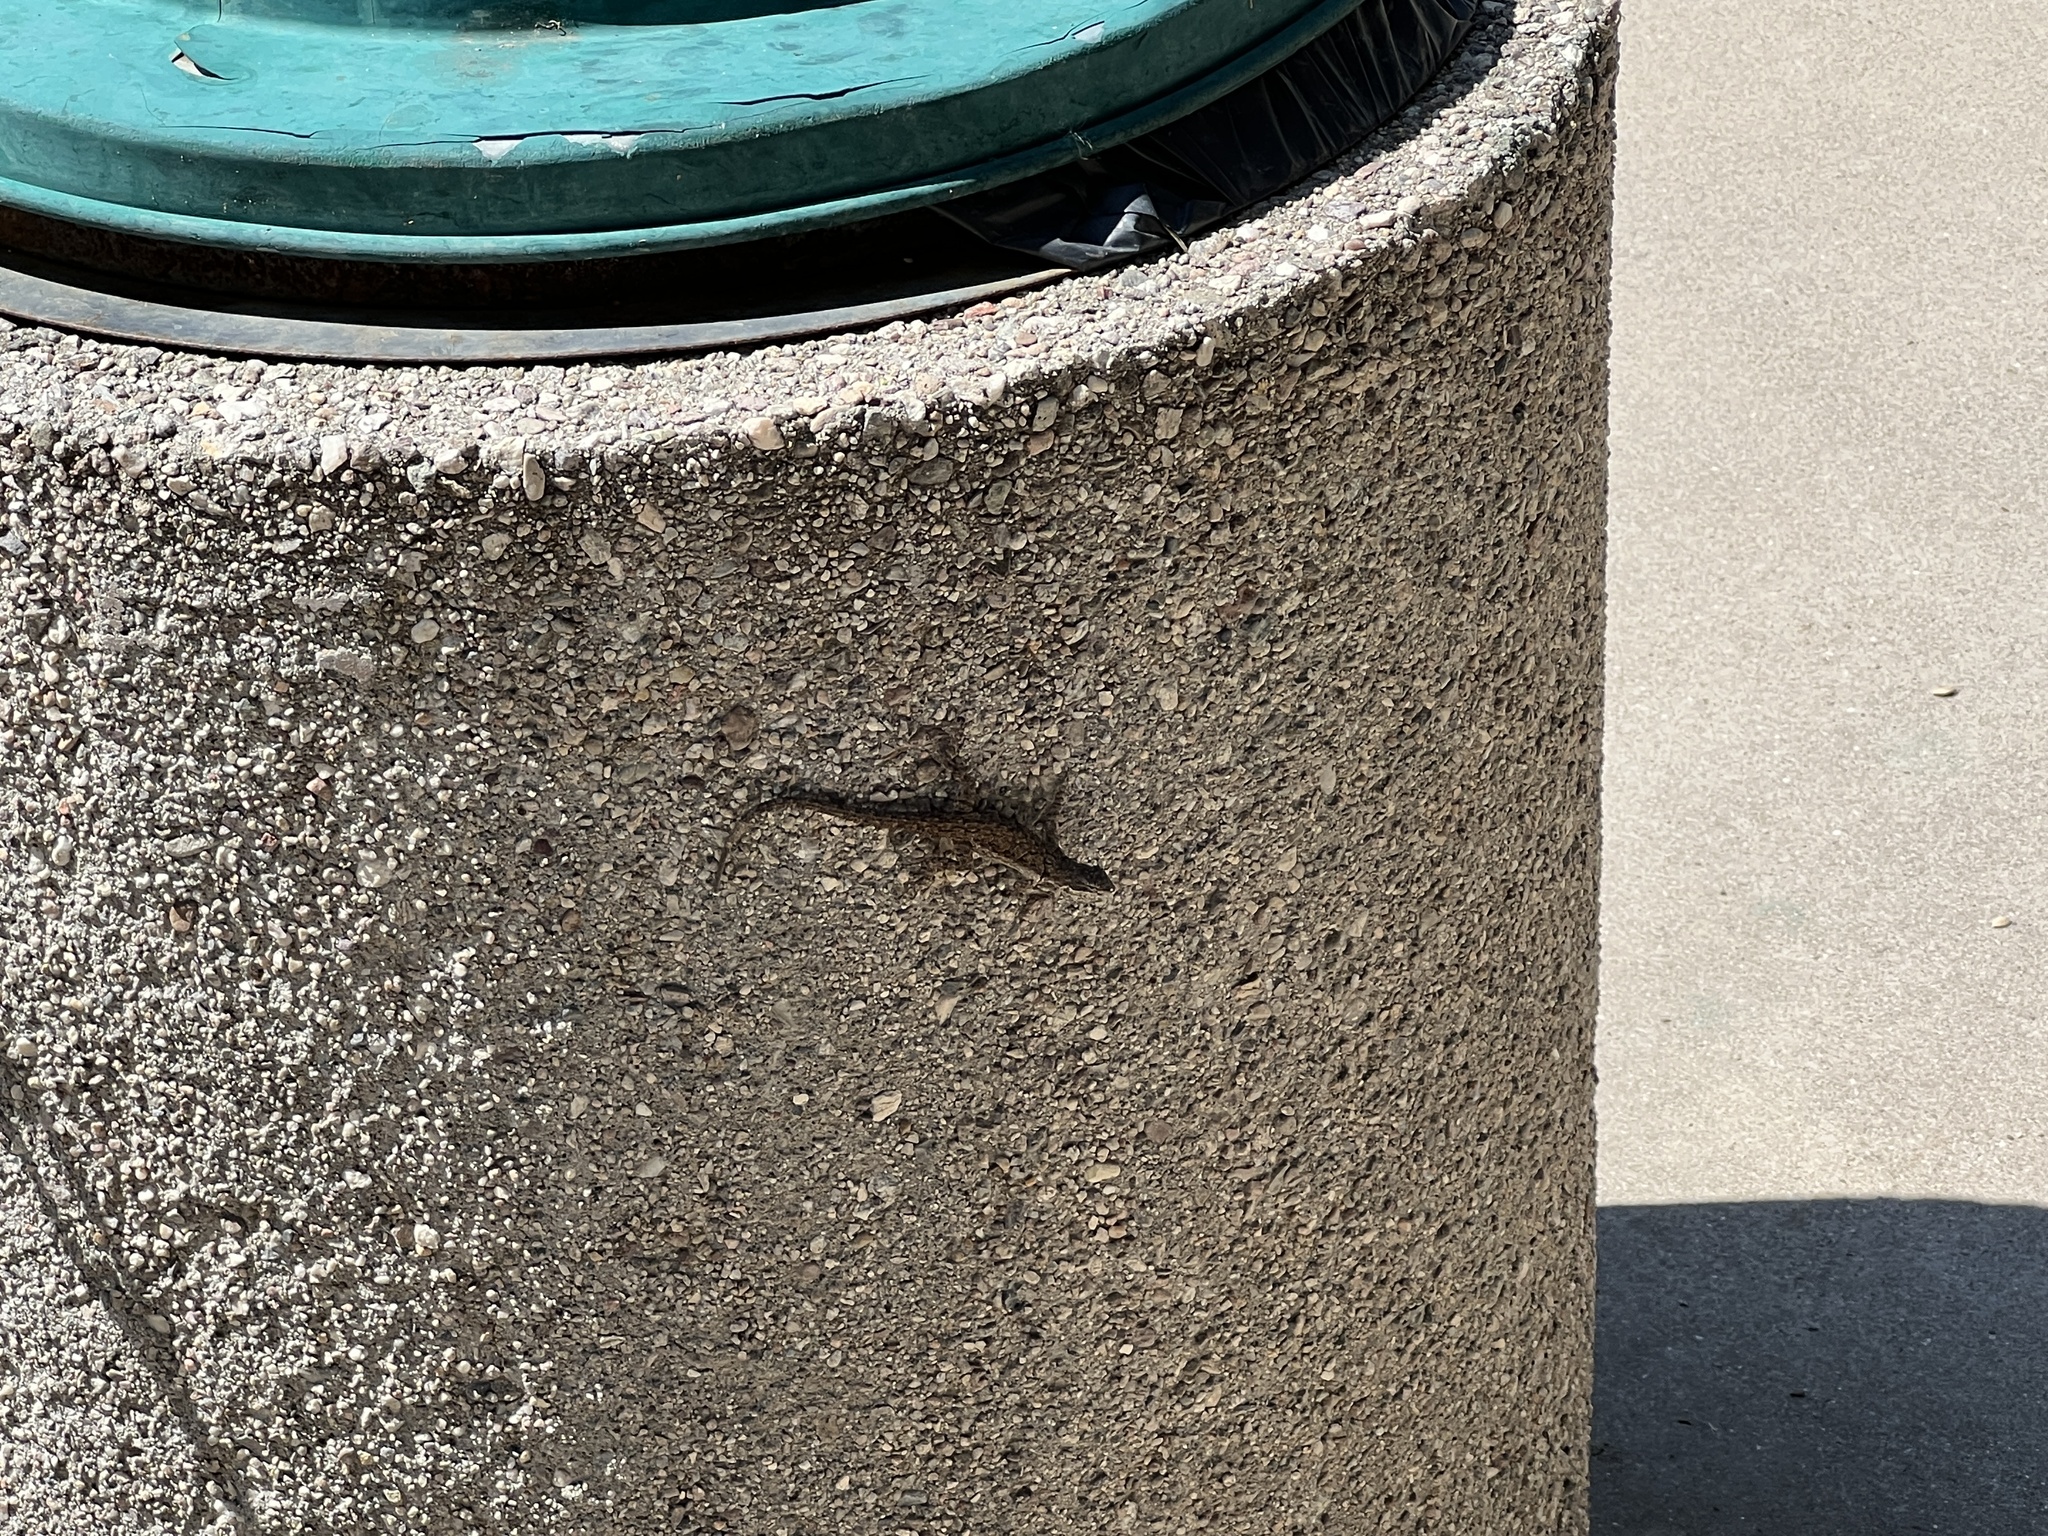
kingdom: Animalia
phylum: Chordata
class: Squamata
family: Phrynosomatidae
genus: Urosaurus
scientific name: Urosaurus ornatus
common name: Ornate tree lizard
